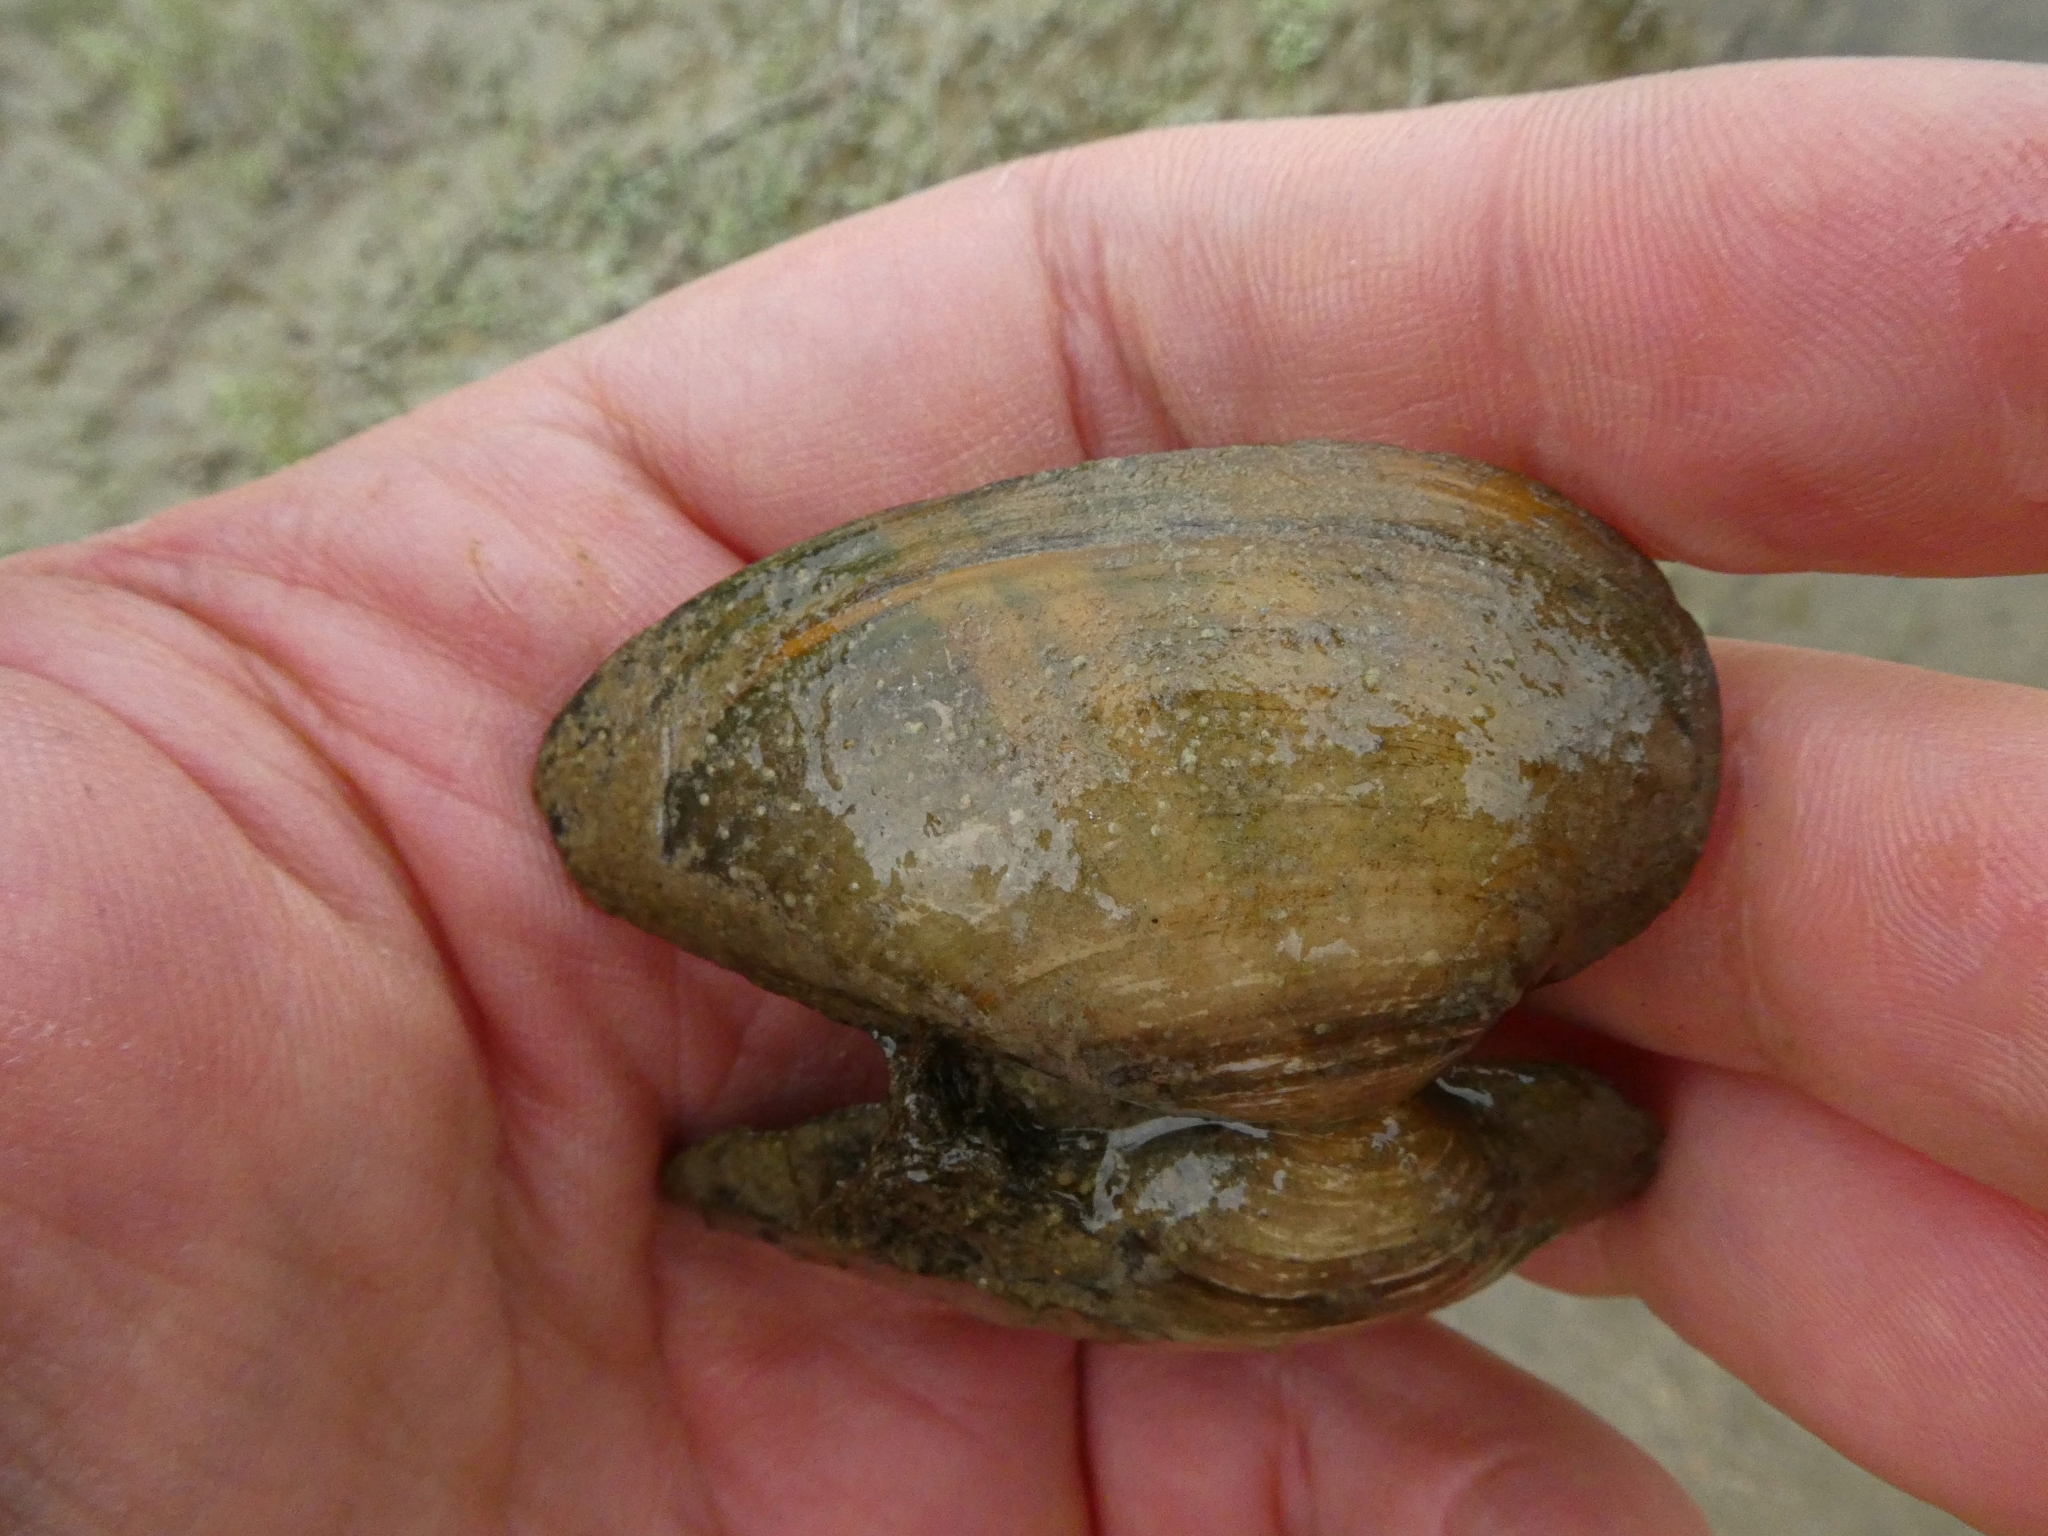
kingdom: Animalia
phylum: Mollusca
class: Bivalvia
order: Unionida
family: Unionidae
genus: Unio
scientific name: Unio tumidus
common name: Swollen river mussel
